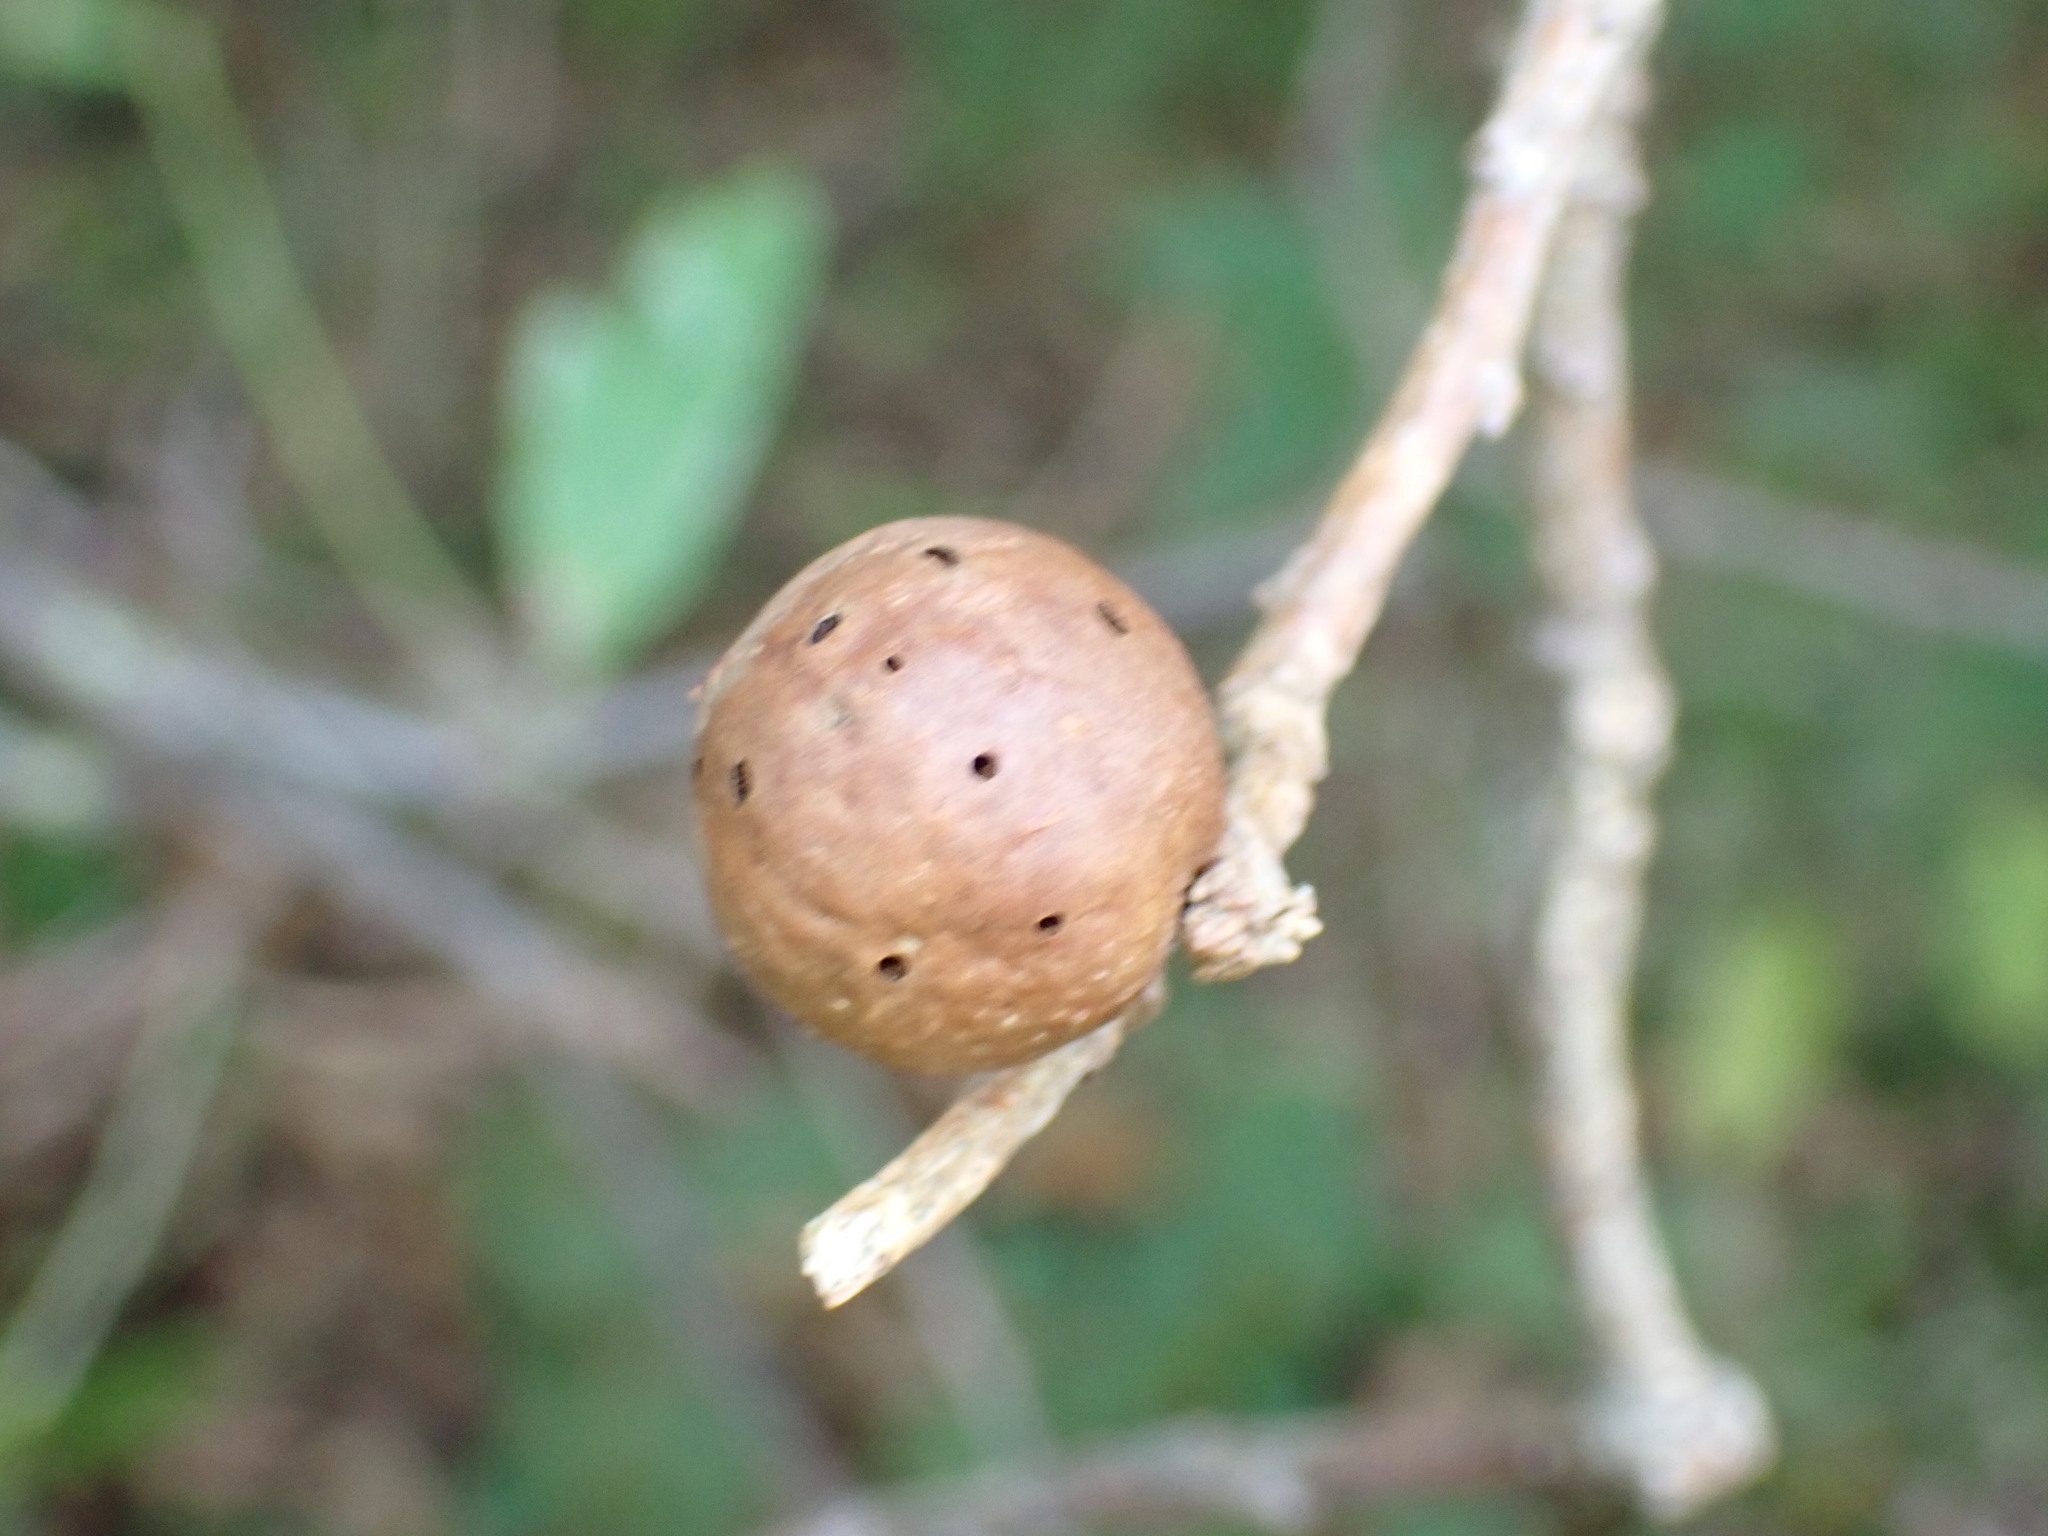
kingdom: Animalia
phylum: Arthropoda
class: Insecta
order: Hymenoptera
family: Cynipidae
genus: Andricus
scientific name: Andricus kollari
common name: Marble gall
